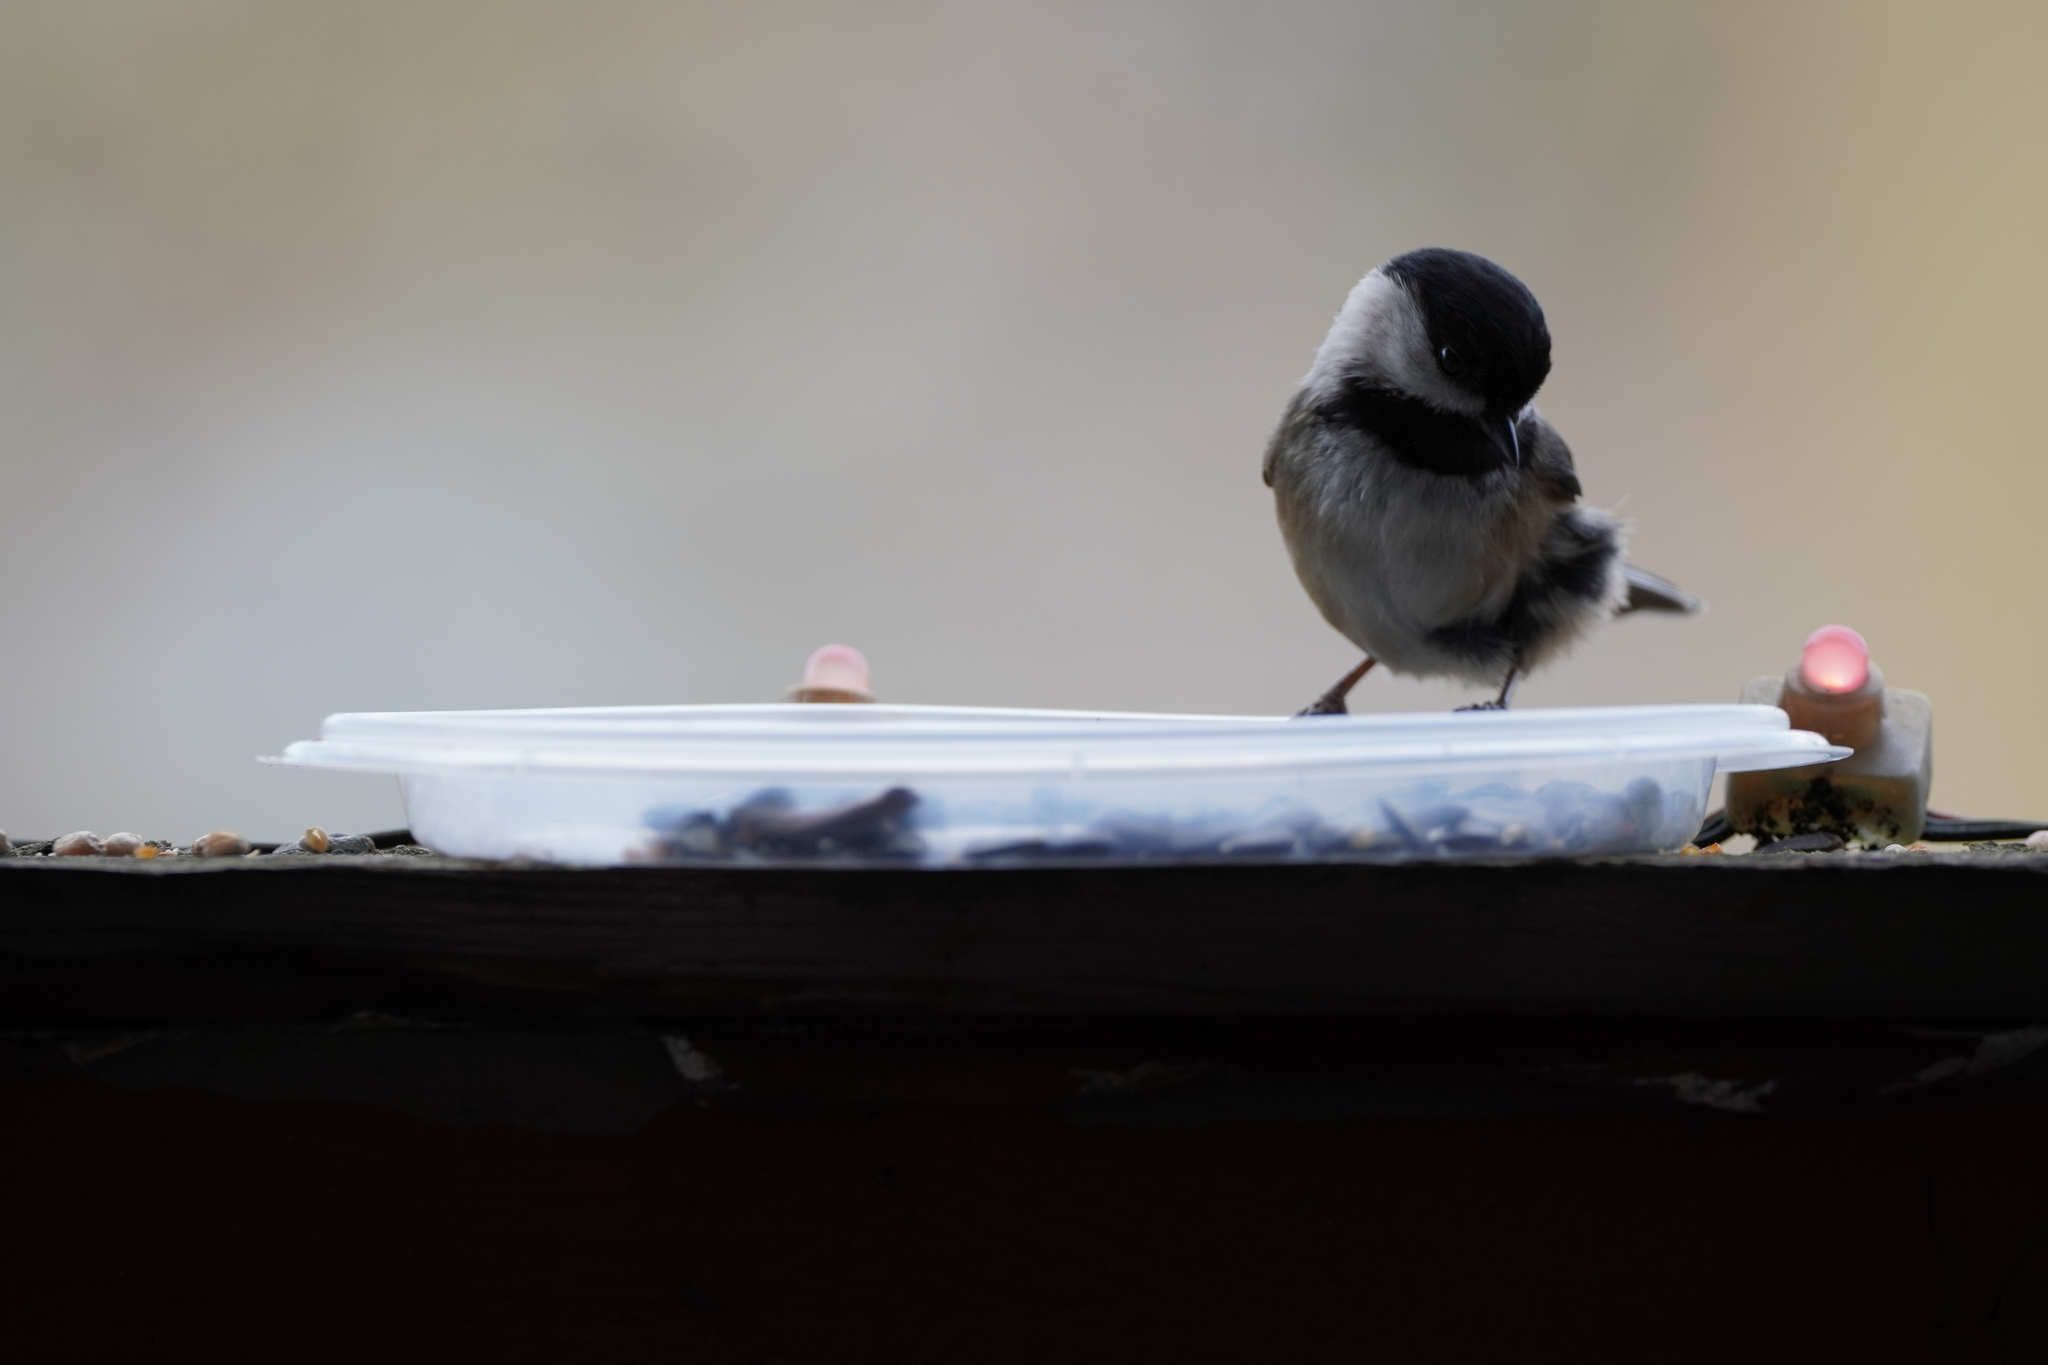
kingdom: Animalia
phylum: Chordata
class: Aves
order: Passeriformes
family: Paridae
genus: Poecile
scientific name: Poecile atricapillus
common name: Black-capped chickadee
